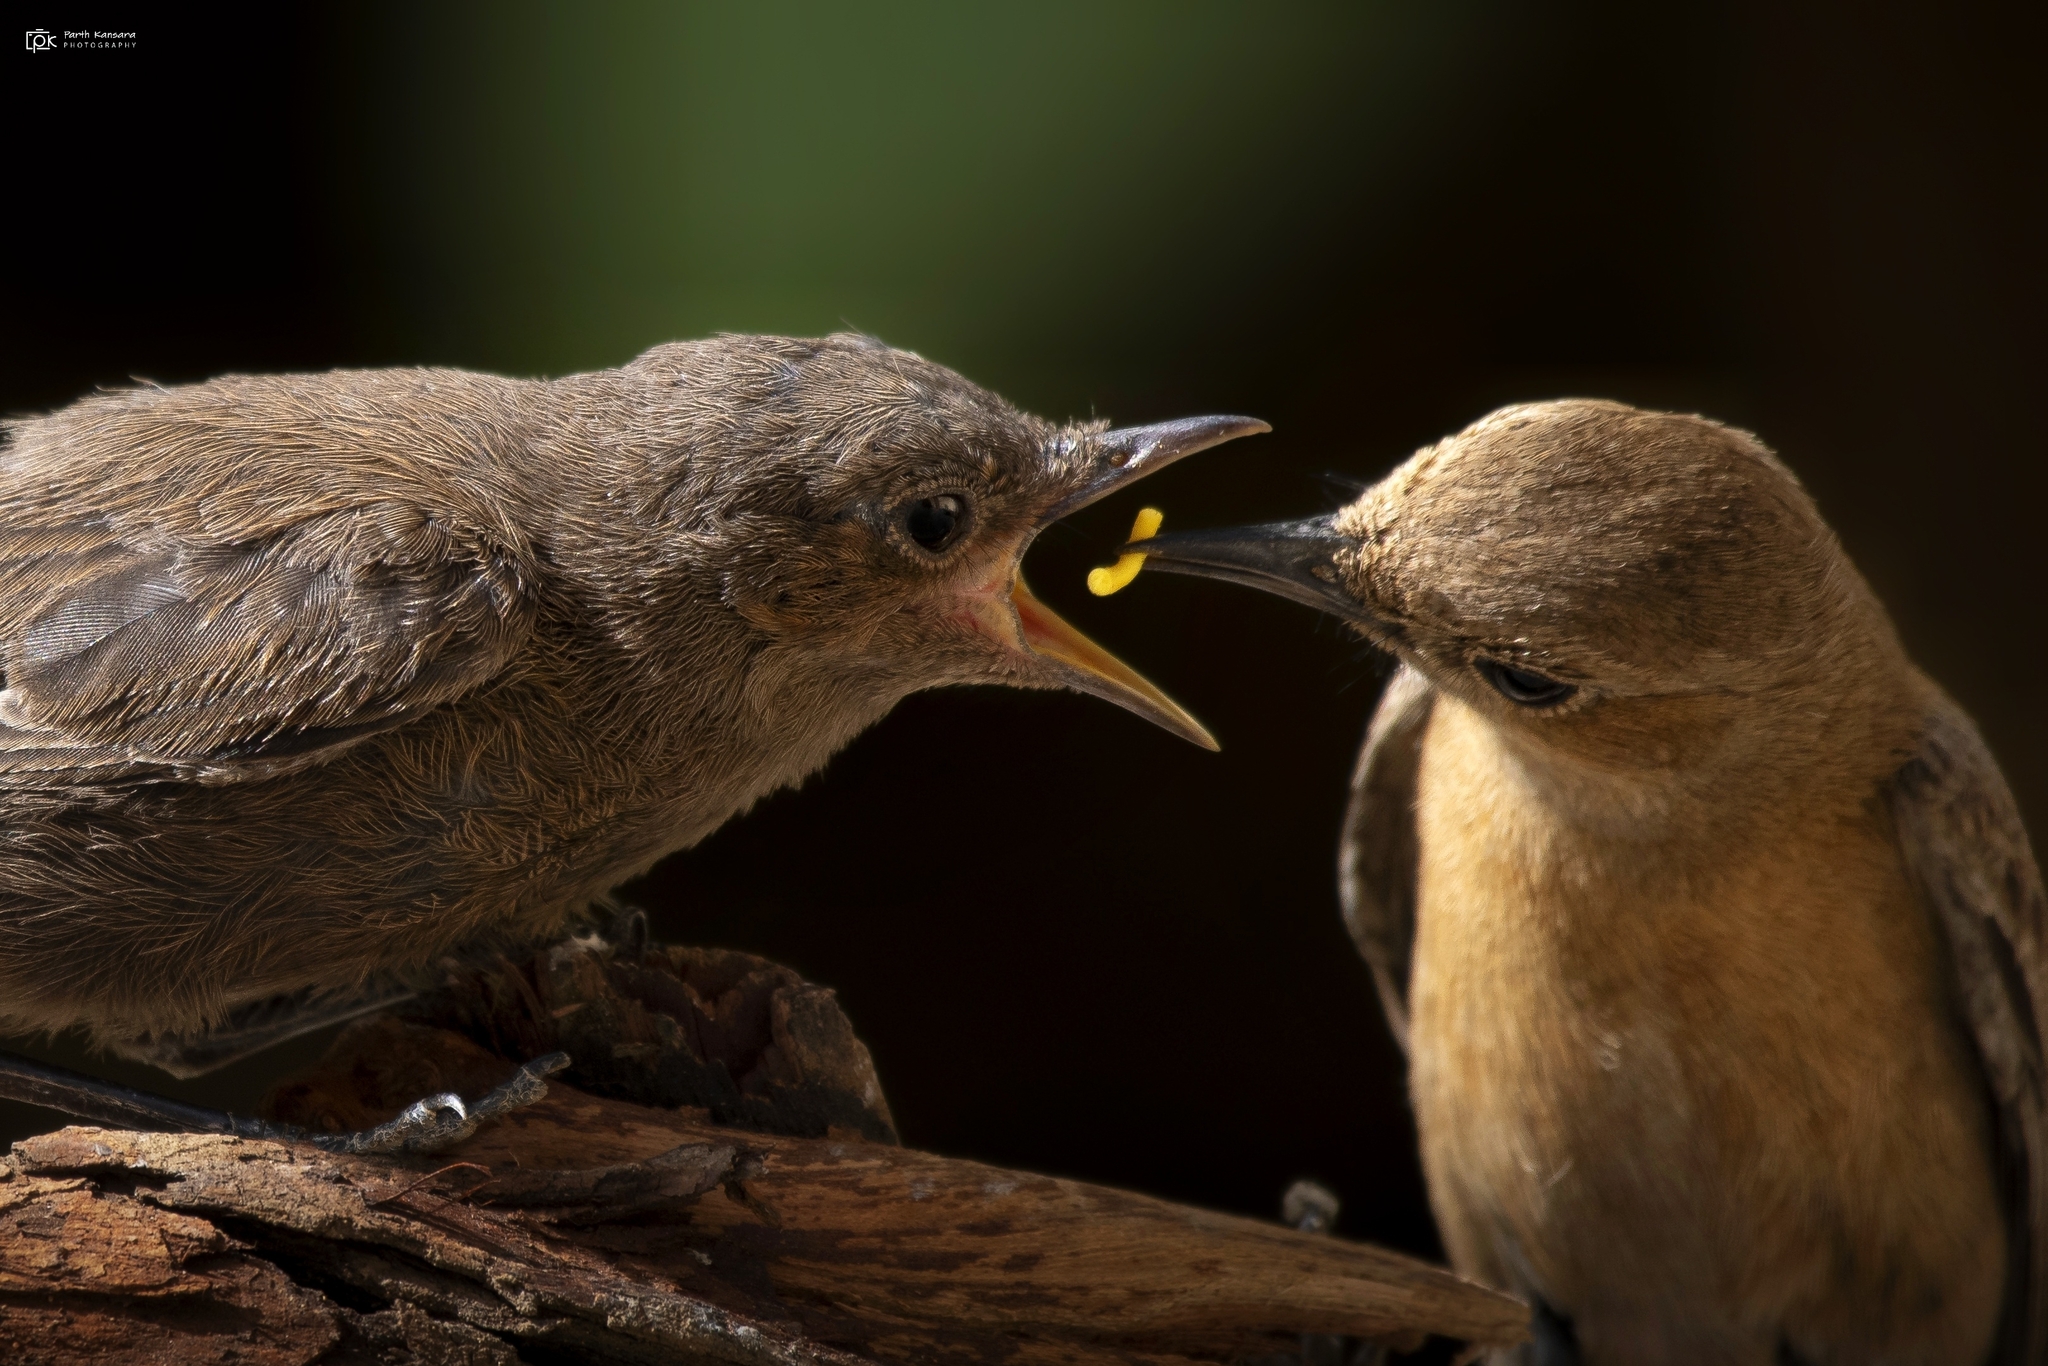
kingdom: Animalia
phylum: Chordata
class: Aves
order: Passeriformes
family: Muscicapidae
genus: Oenanthe
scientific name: Oenanthe fusca
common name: Brown rock chat
